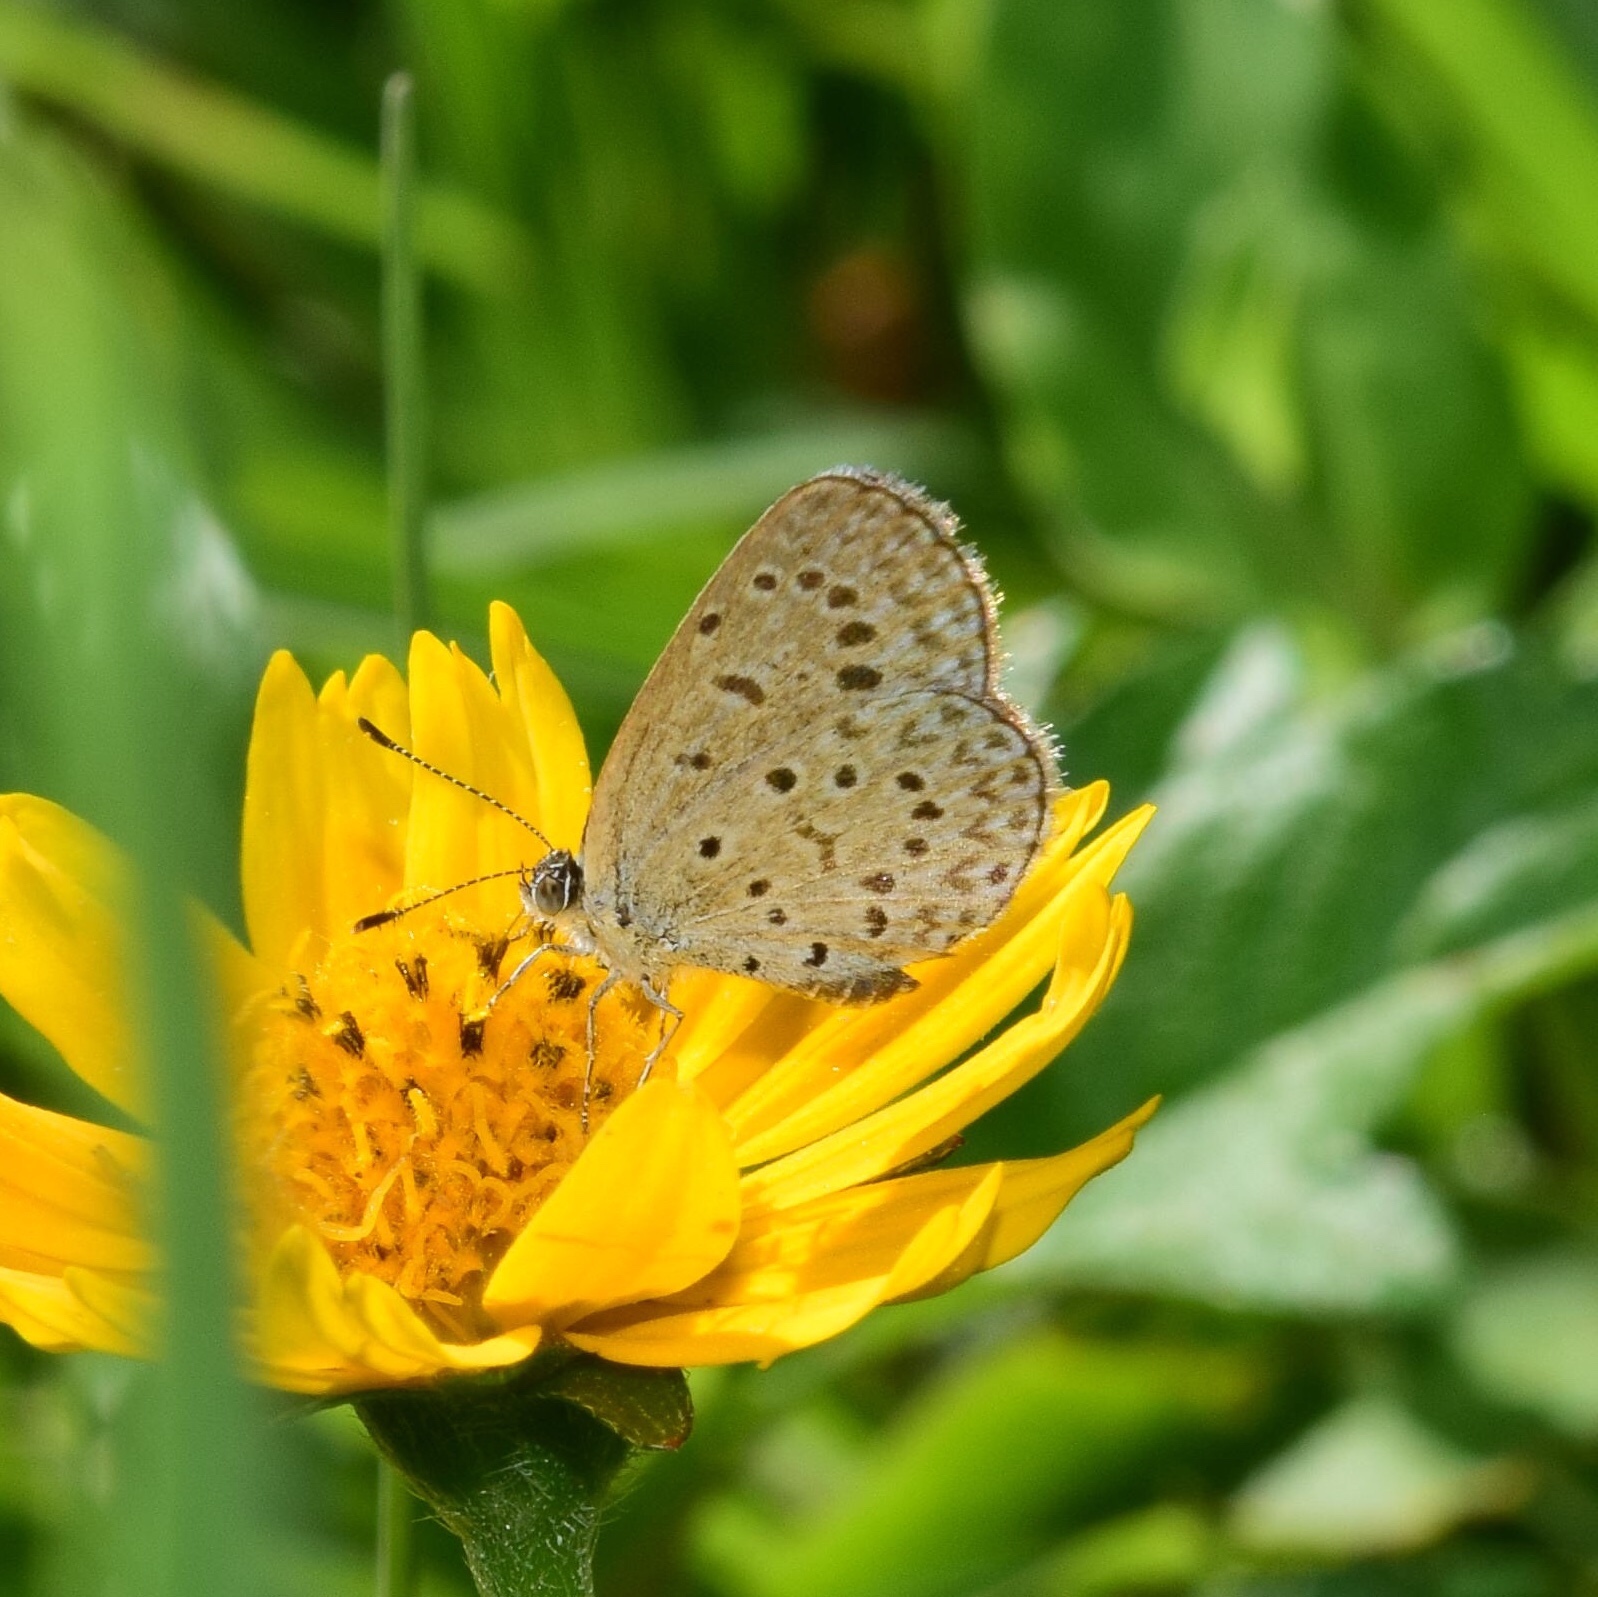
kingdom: Animalia
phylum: Arthropoda
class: Insecta
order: Lepidoptera
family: Lycaenidae
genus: Zizeeria
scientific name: Zizeeria knysna
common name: African grass blue
